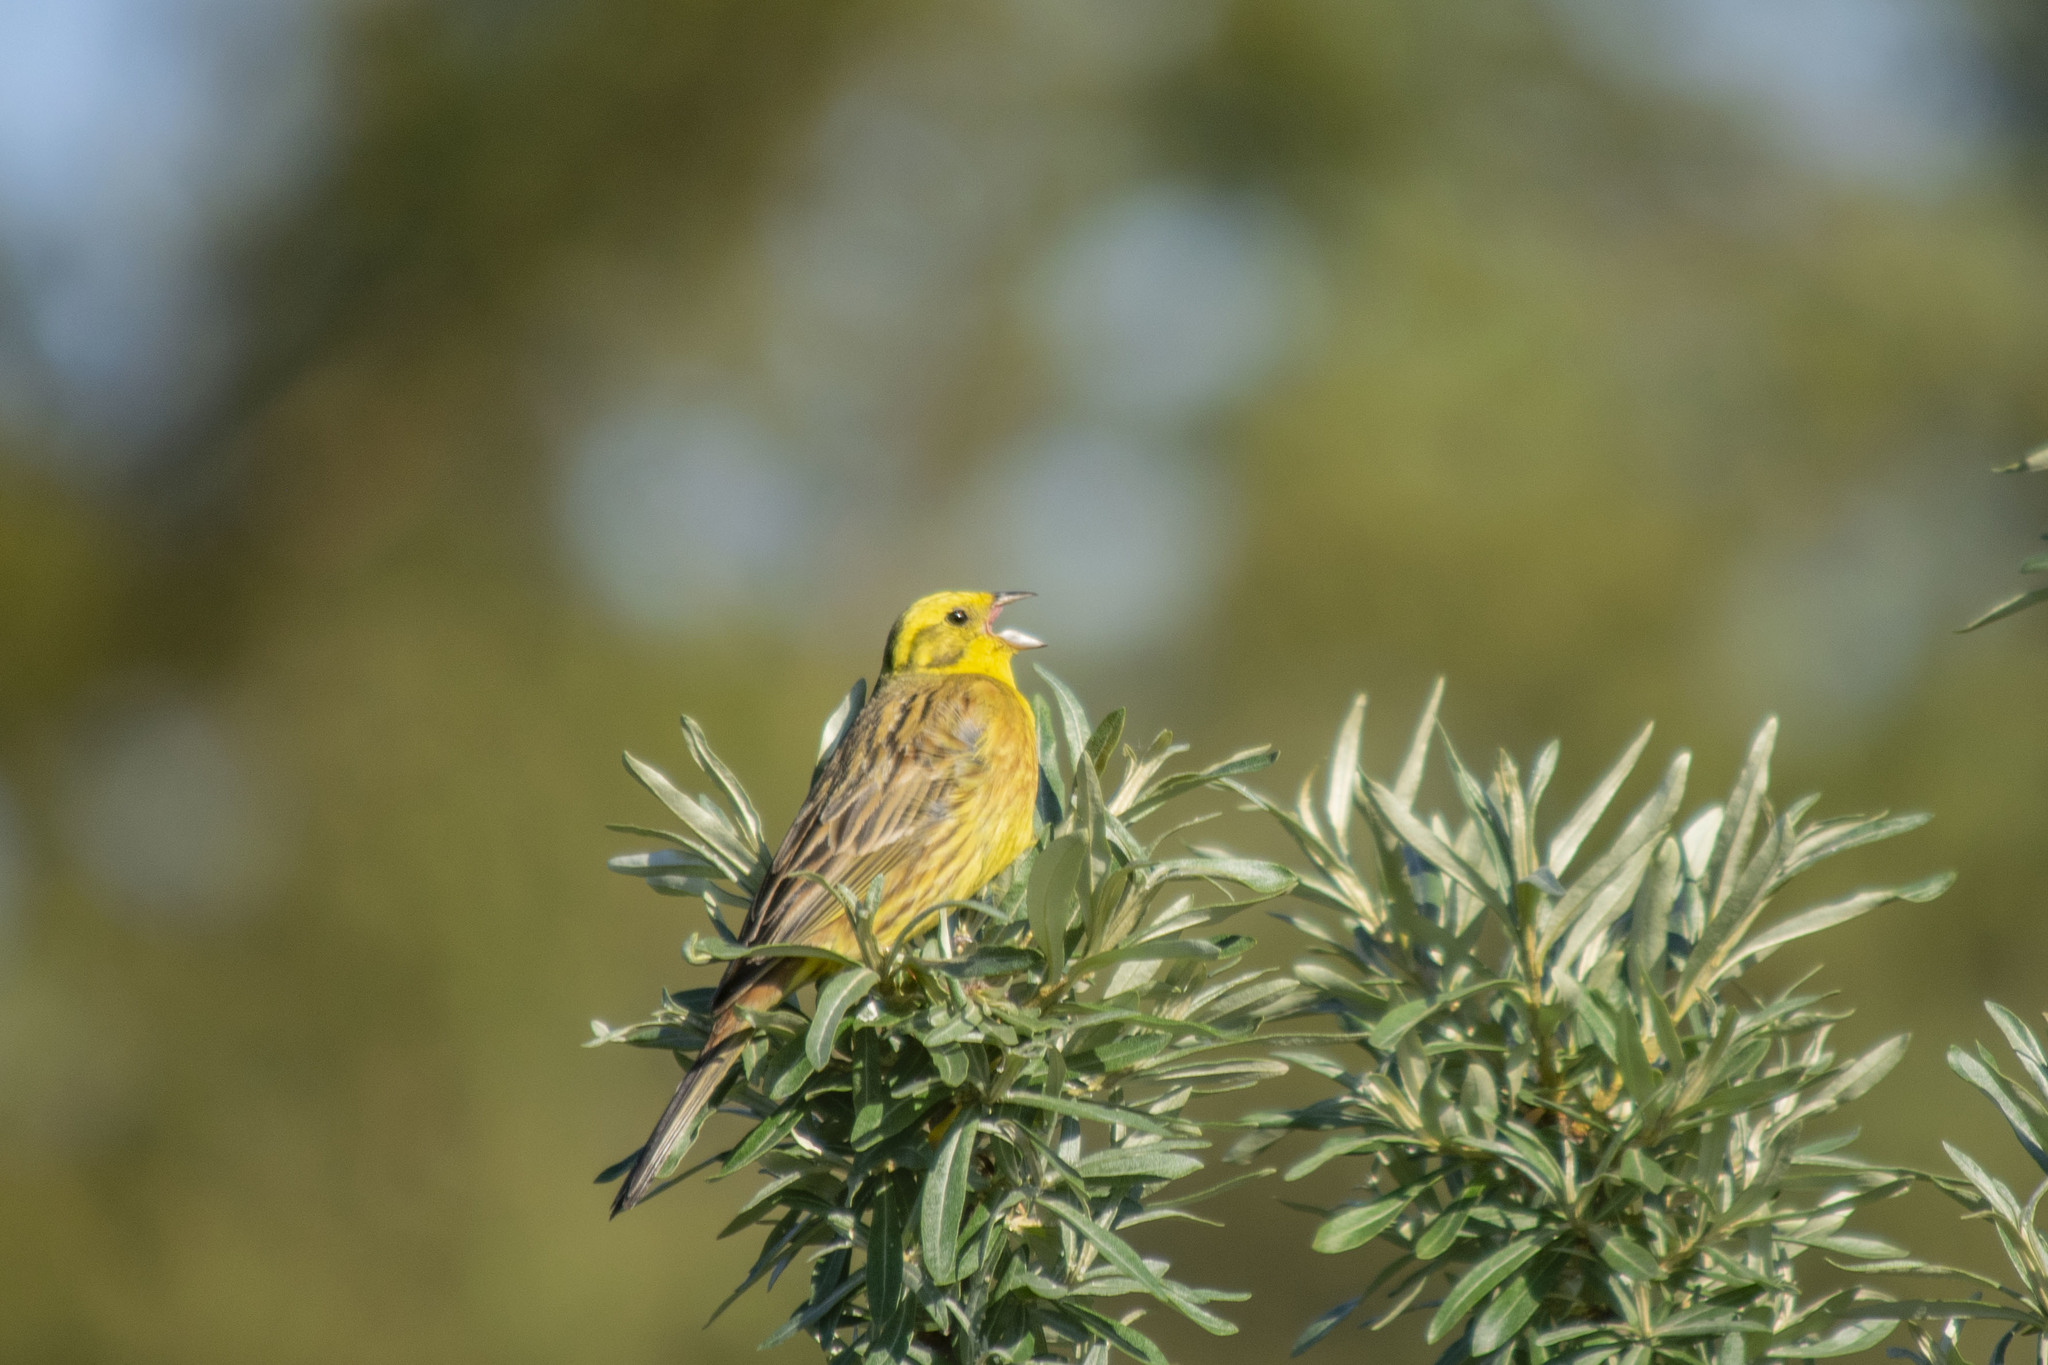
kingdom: Animalia
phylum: Chordata
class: Aves
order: Passeriformes
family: Emberizidae
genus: Emberiza
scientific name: Emberiza citrinella
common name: Yellowhammer
